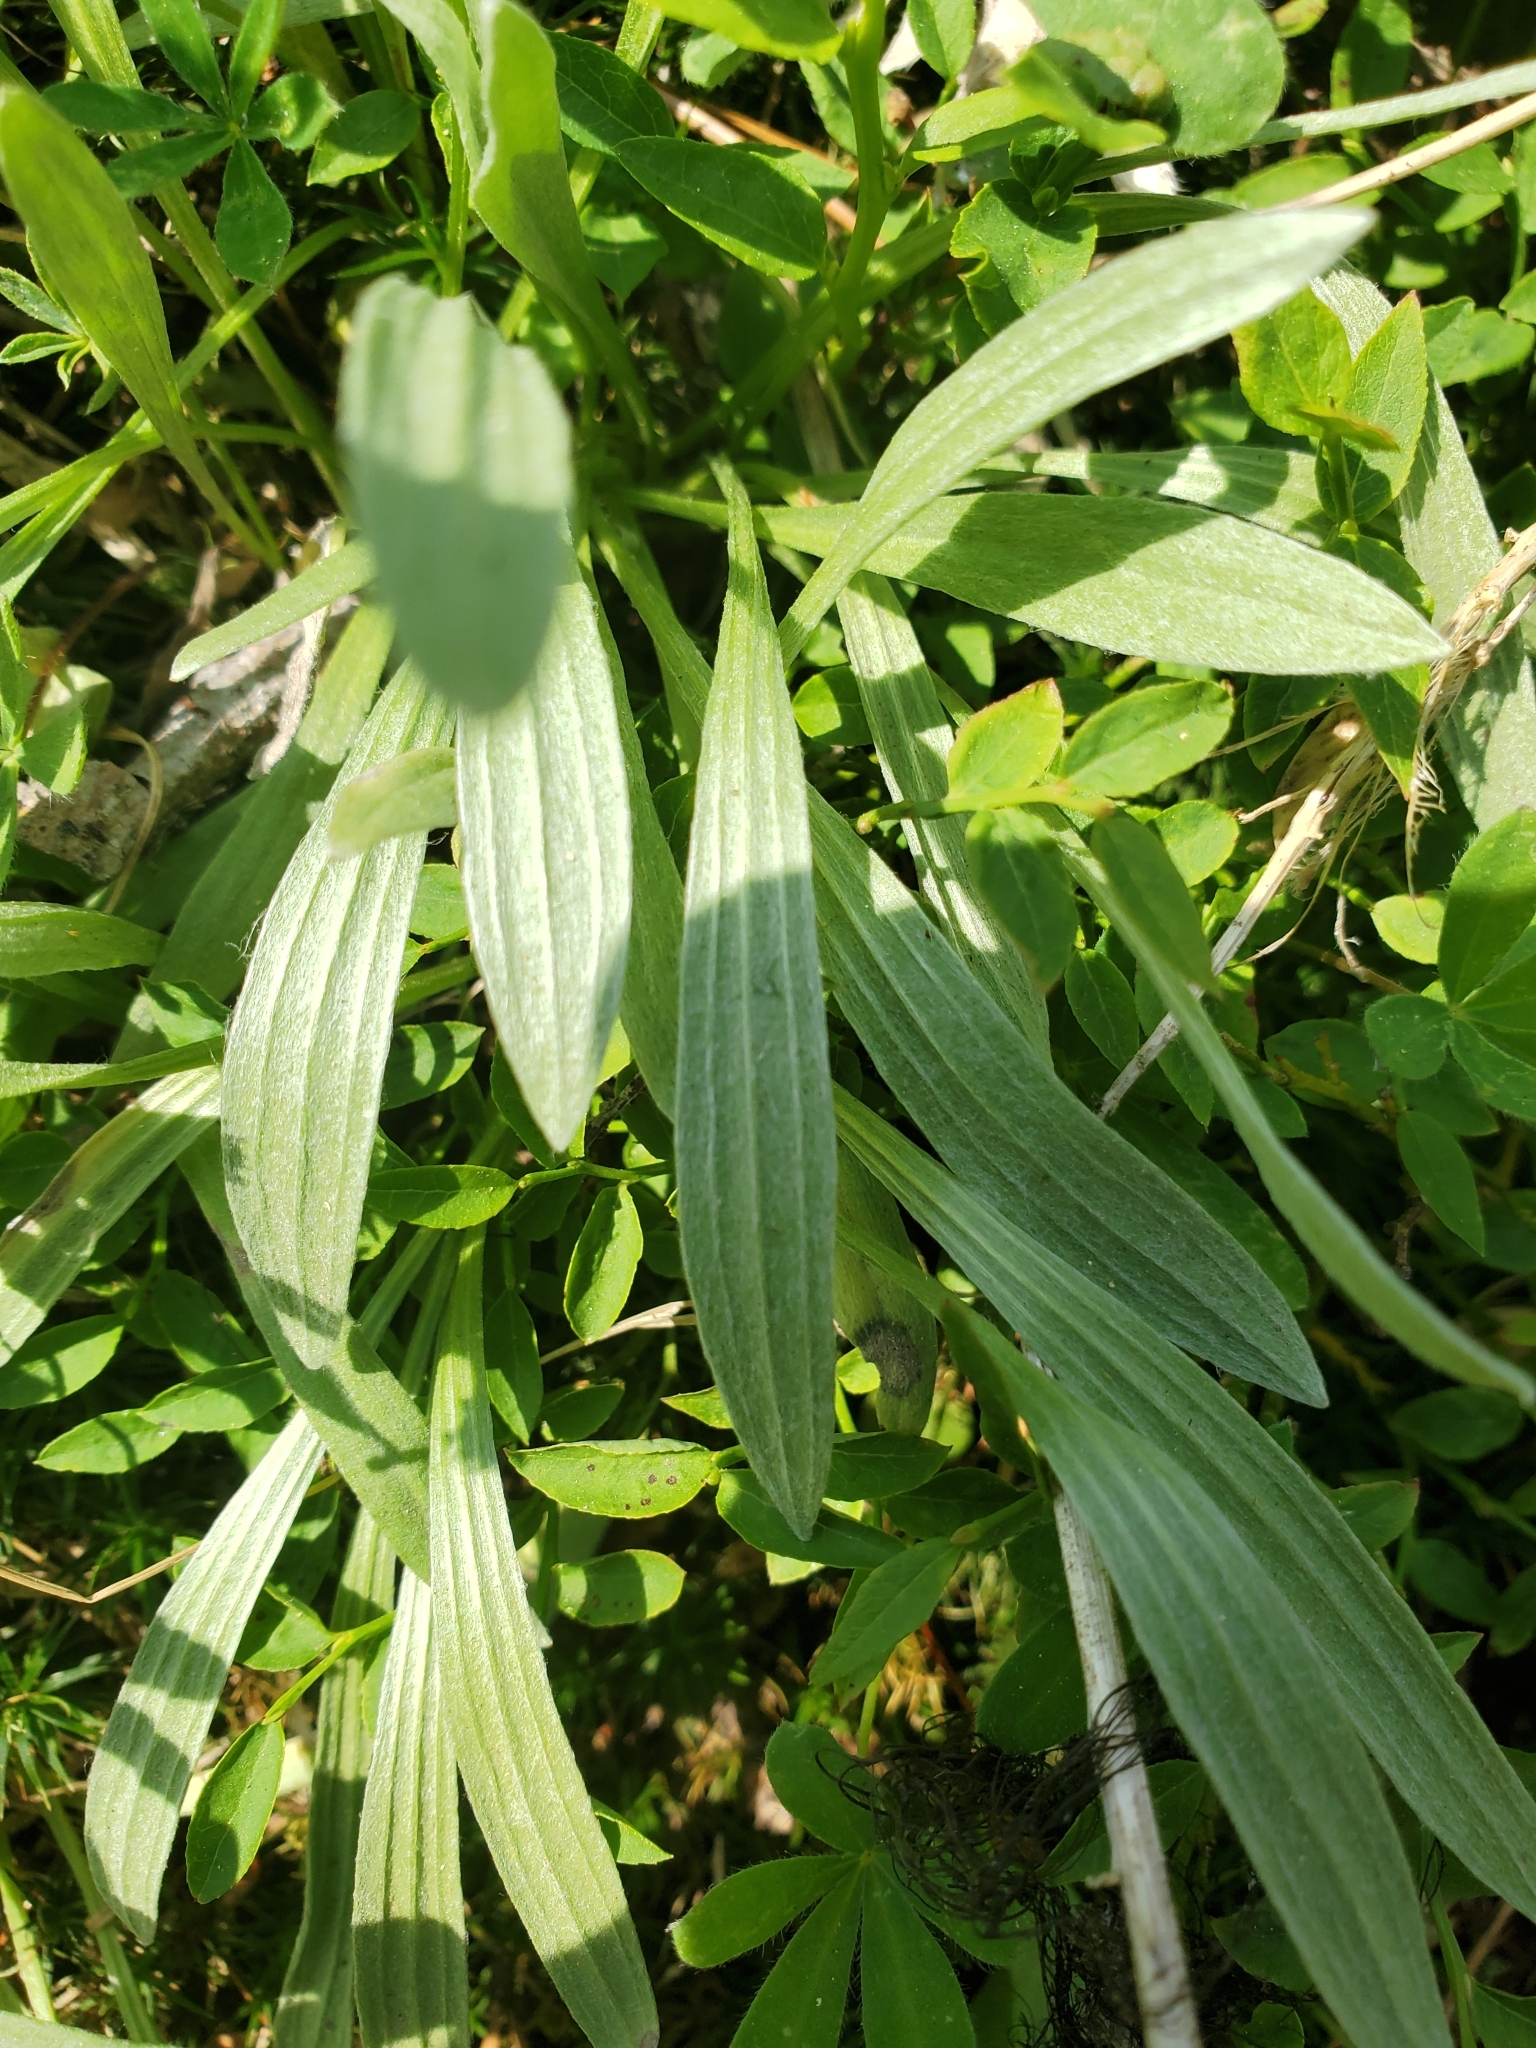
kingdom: Plantae
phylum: Tracheophyta
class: Magnoliopsida
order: Asterales
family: Asteraceae
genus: Antennaria
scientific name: Antennaria anaphaloides
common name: Tall pussytoes
